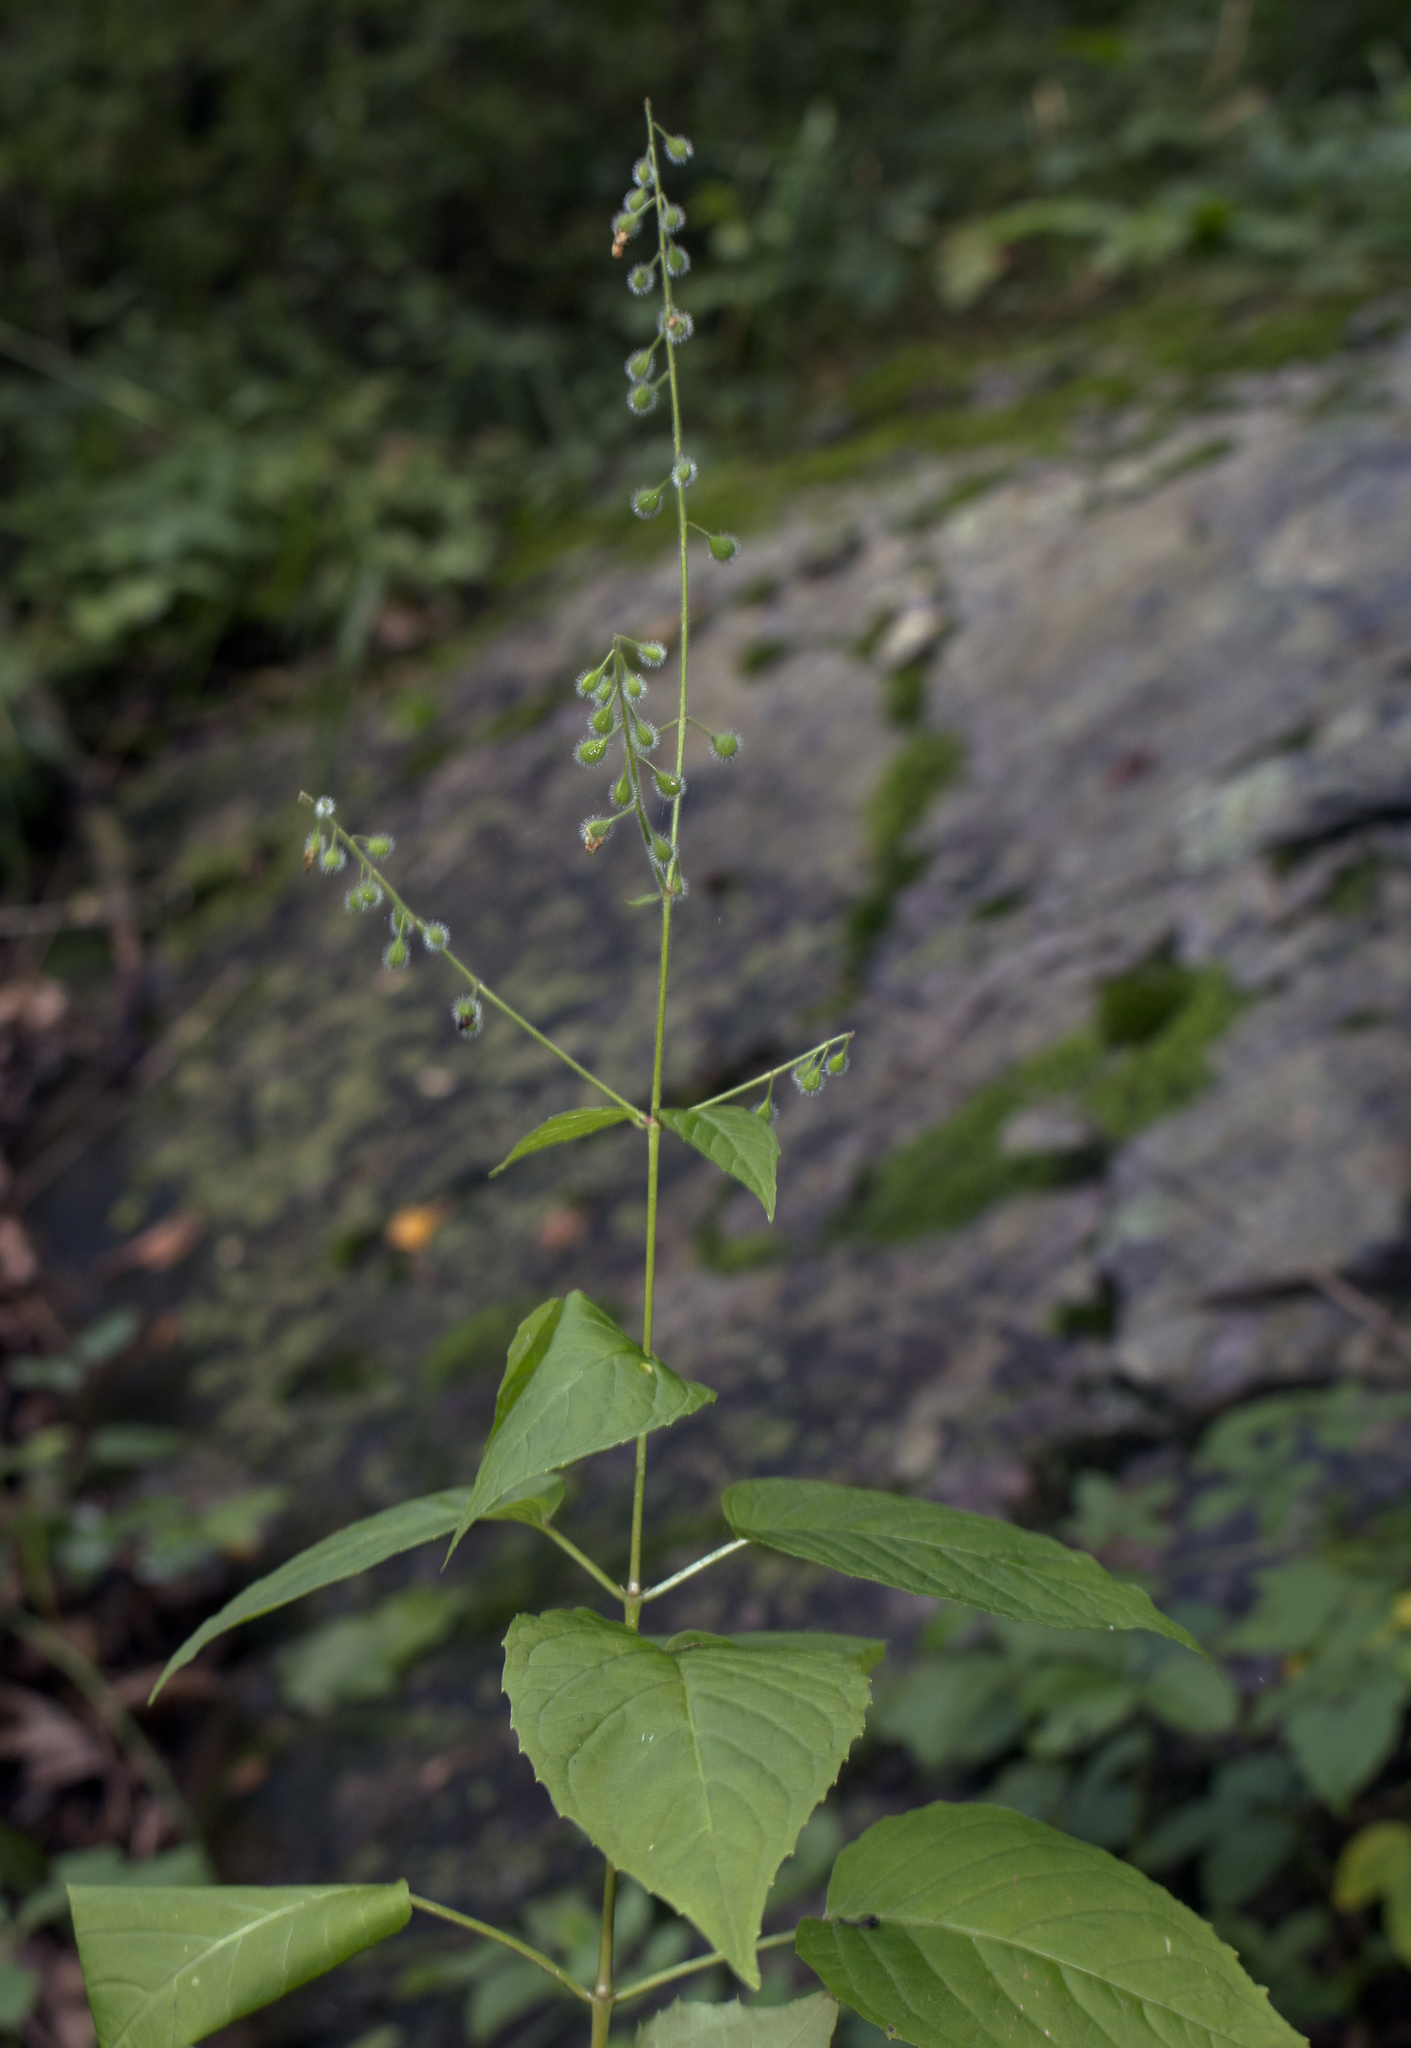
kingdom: Plantae
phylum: Tracheophyta
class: Magnoliopsida
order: Myrtales
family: Onagraceae
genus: Circaea
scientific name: Circaea canadensis
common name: Broad-leaved enchanter's nightshade
